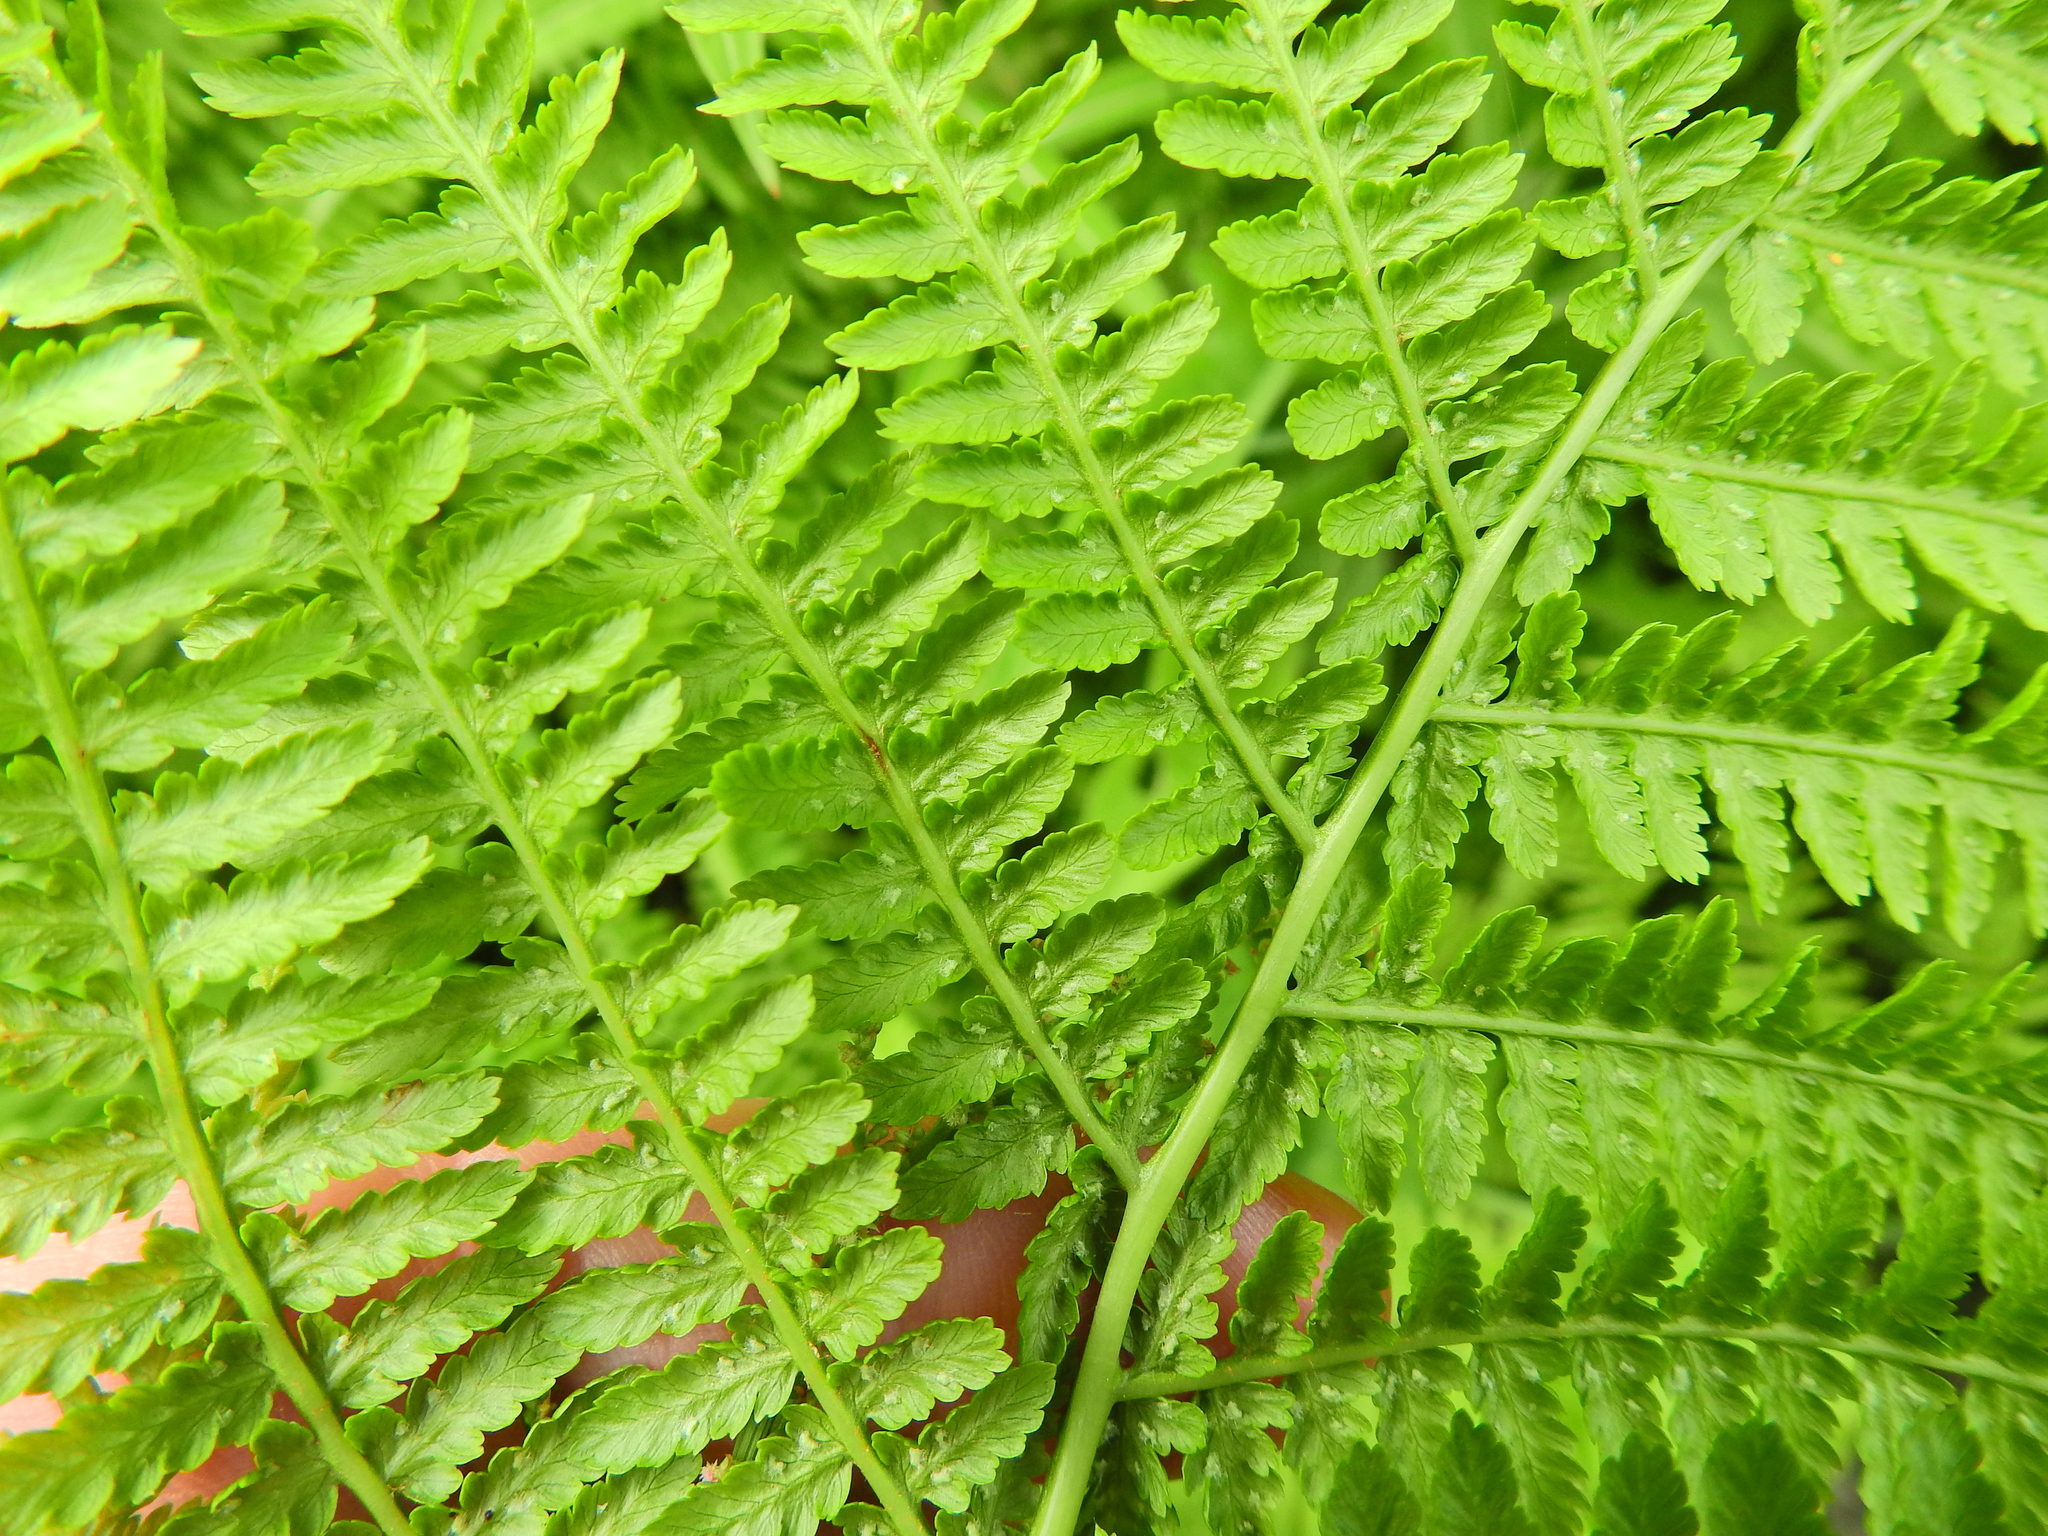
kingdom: Plantae
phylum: Tracheophyta
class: Polypodiopsida
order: Polypodiales
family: Athyriaceae
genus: Athyrium
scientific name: Athyrium filix-femina
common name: Lady fern
